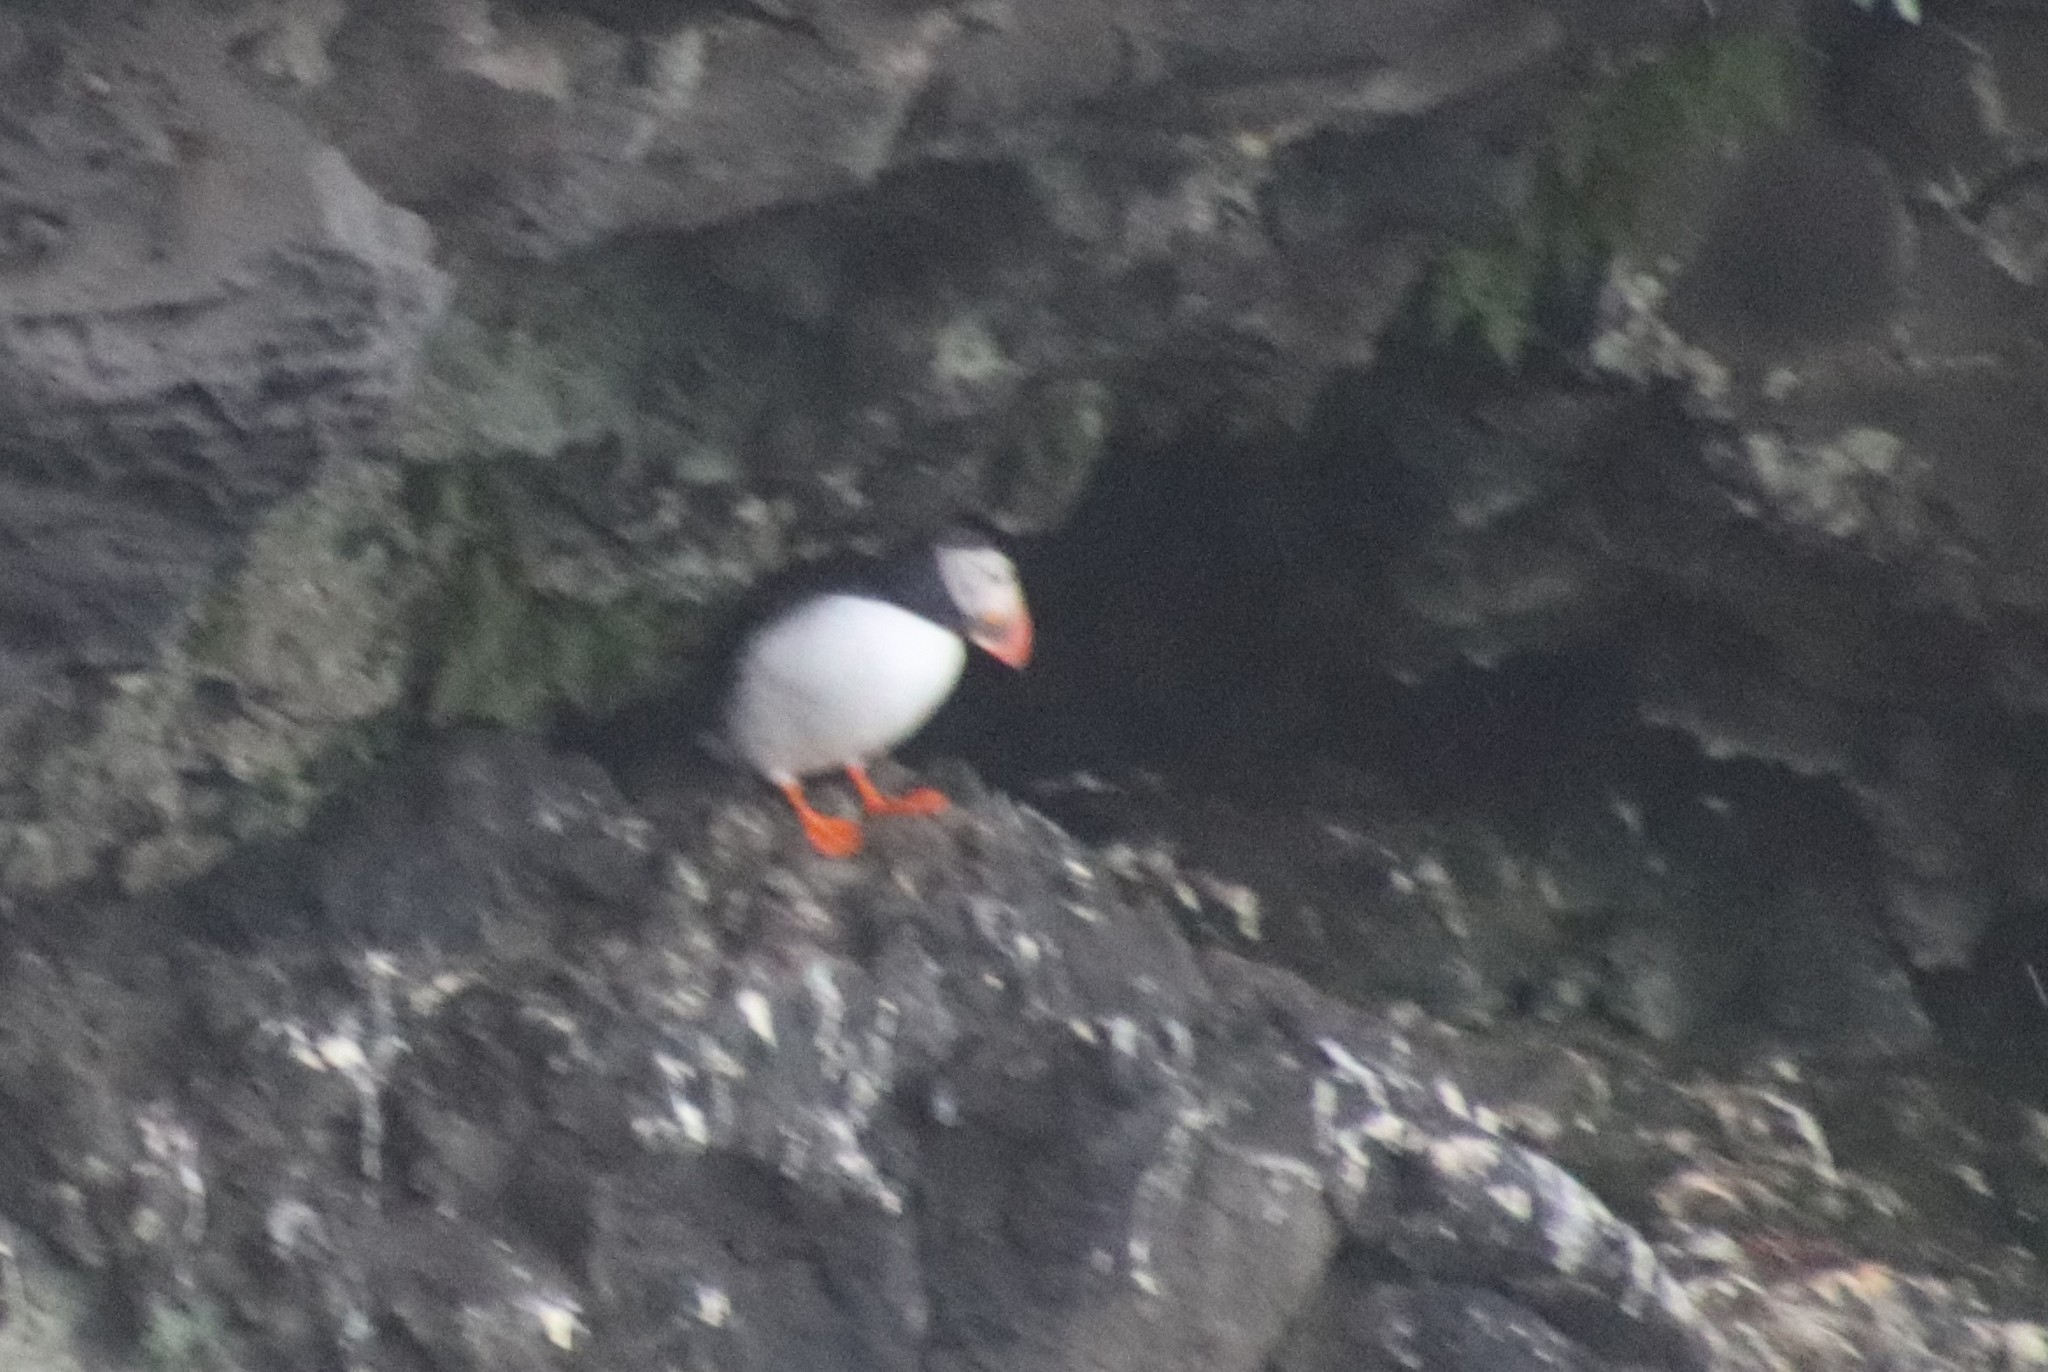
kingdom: Animalia
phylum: Chordata
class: Aves
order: Charadriiformes
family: Alcidae
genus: Fratercula
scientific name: Fratercula arctica
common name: Atlantic puffin
